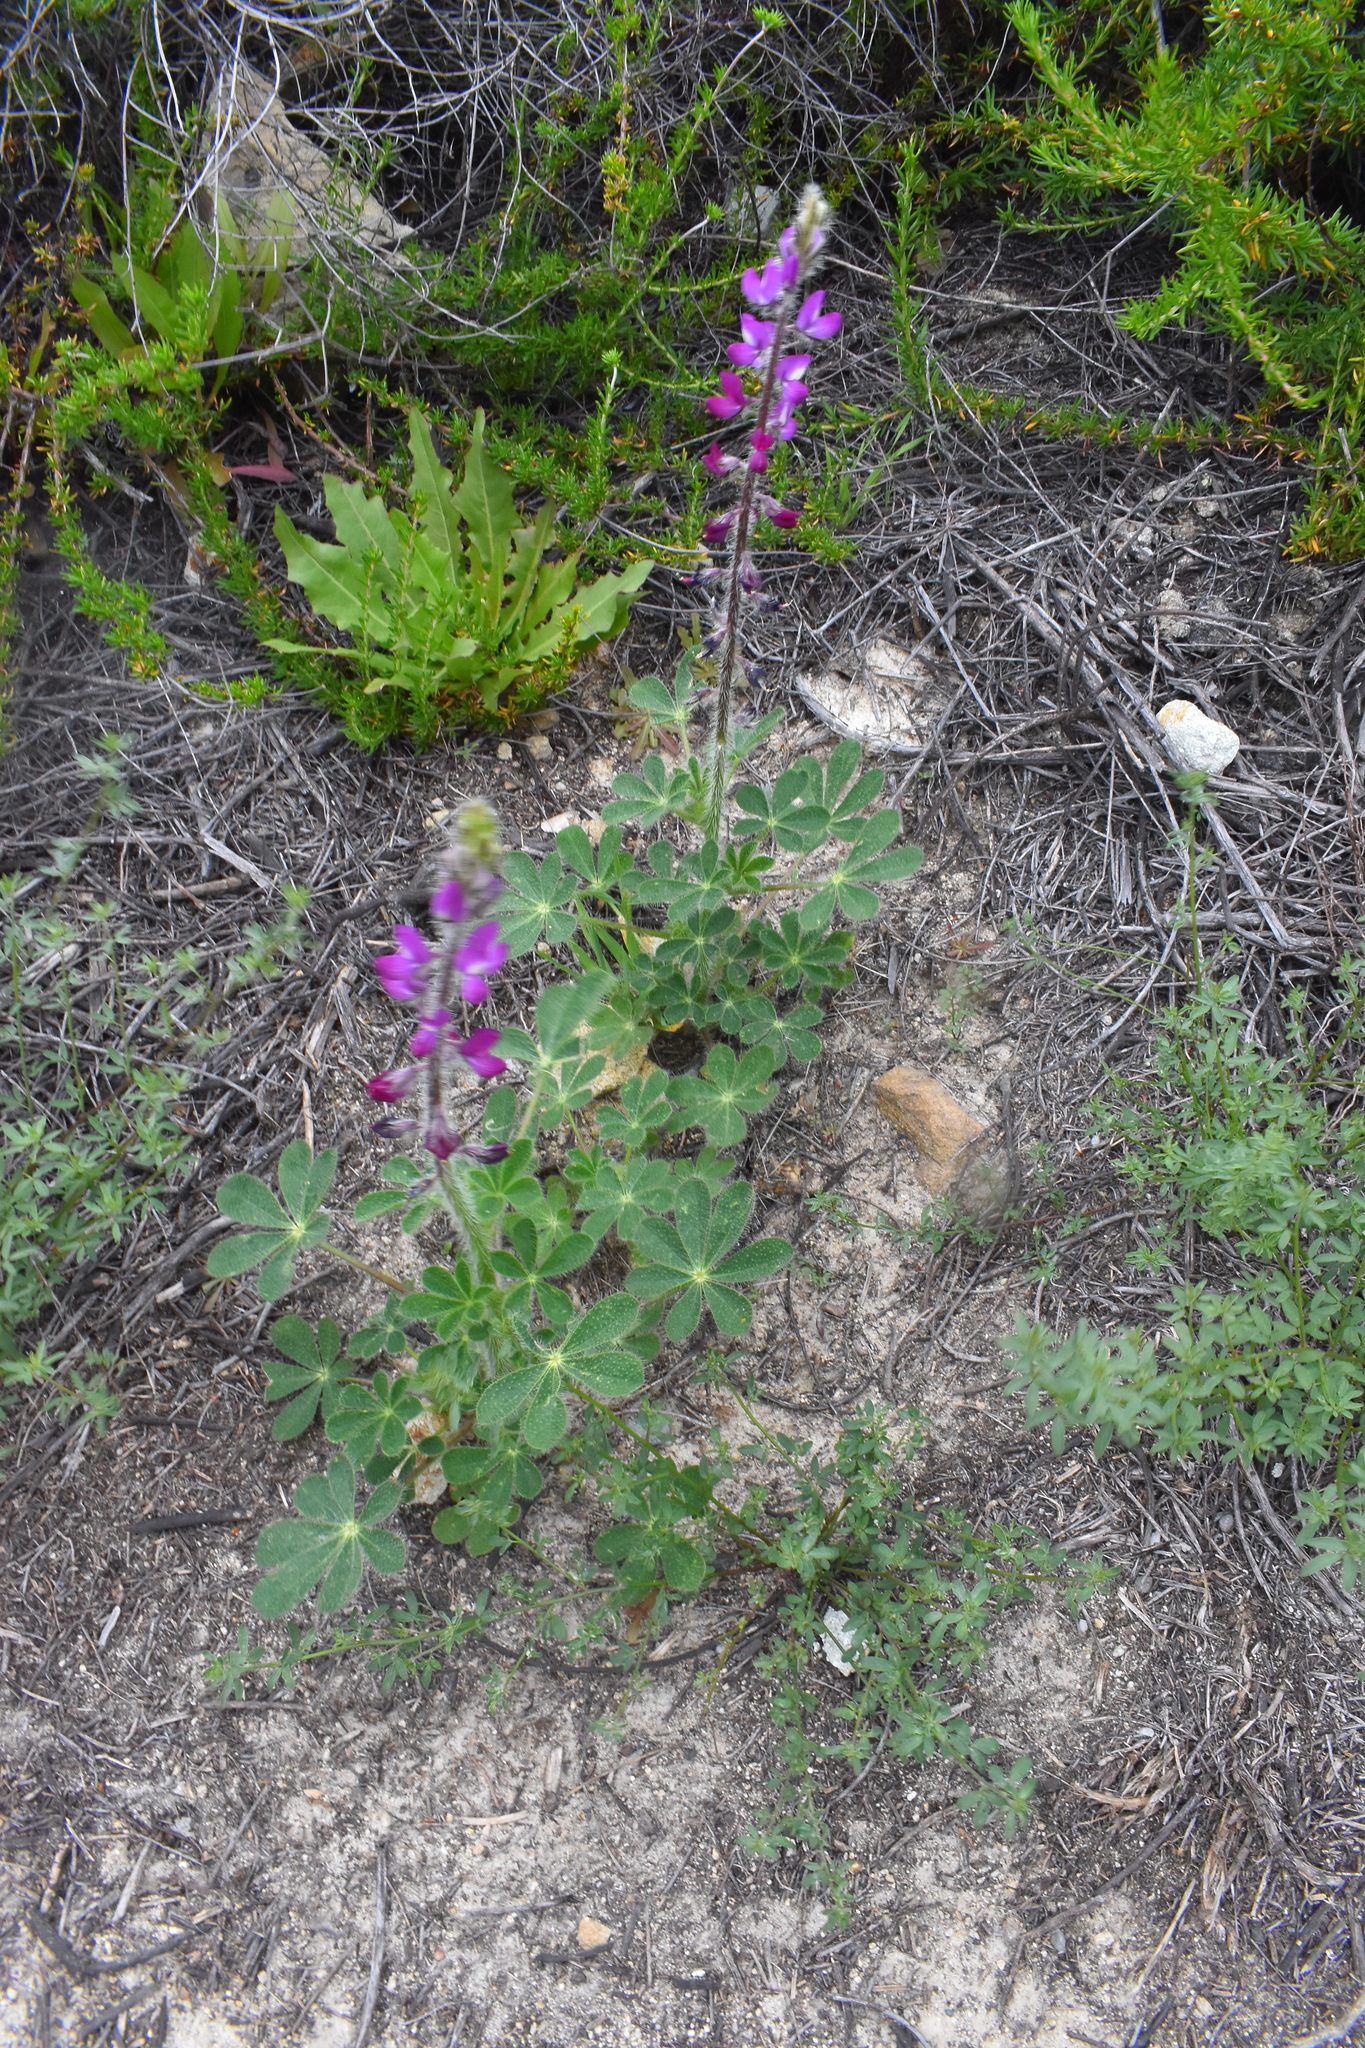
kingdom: Plantae
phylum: Tracheophyta
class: Magnoliopsida
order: Fabales
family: Fabaceae
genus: Lupinus
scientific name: Lupinus hirsutissimus
